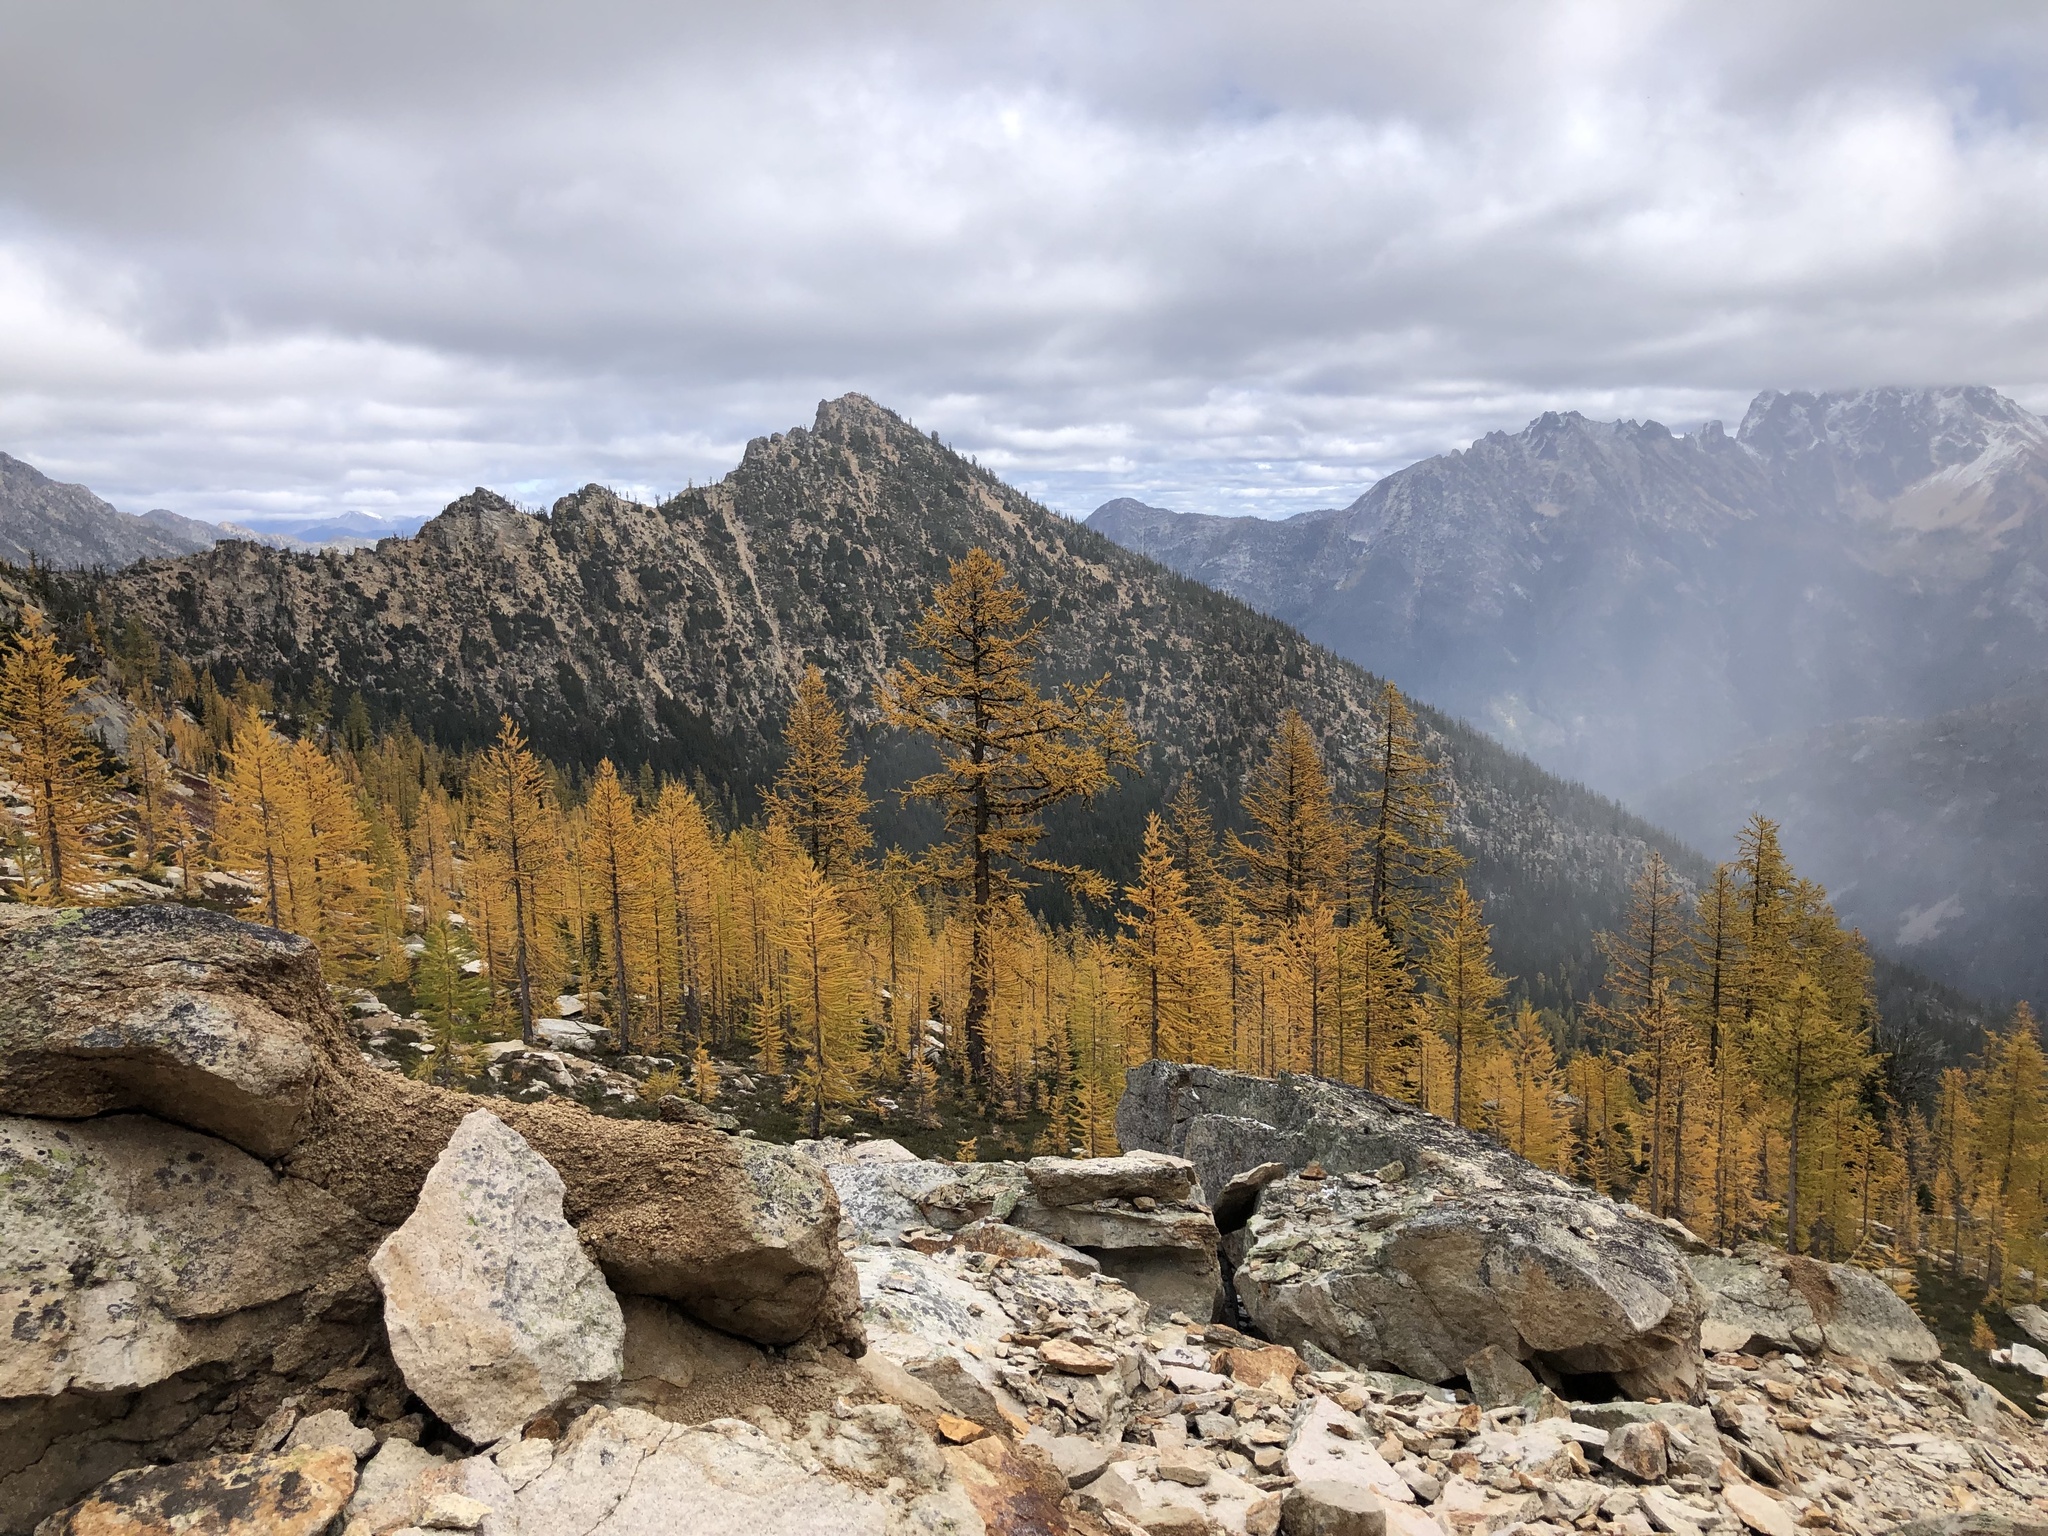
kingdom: Plantae
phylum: Tracheophyta
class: Pinopsida
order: Pinales
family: Pinaceae
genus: Larix
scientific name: Larix lyallii
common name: Alpine larch
